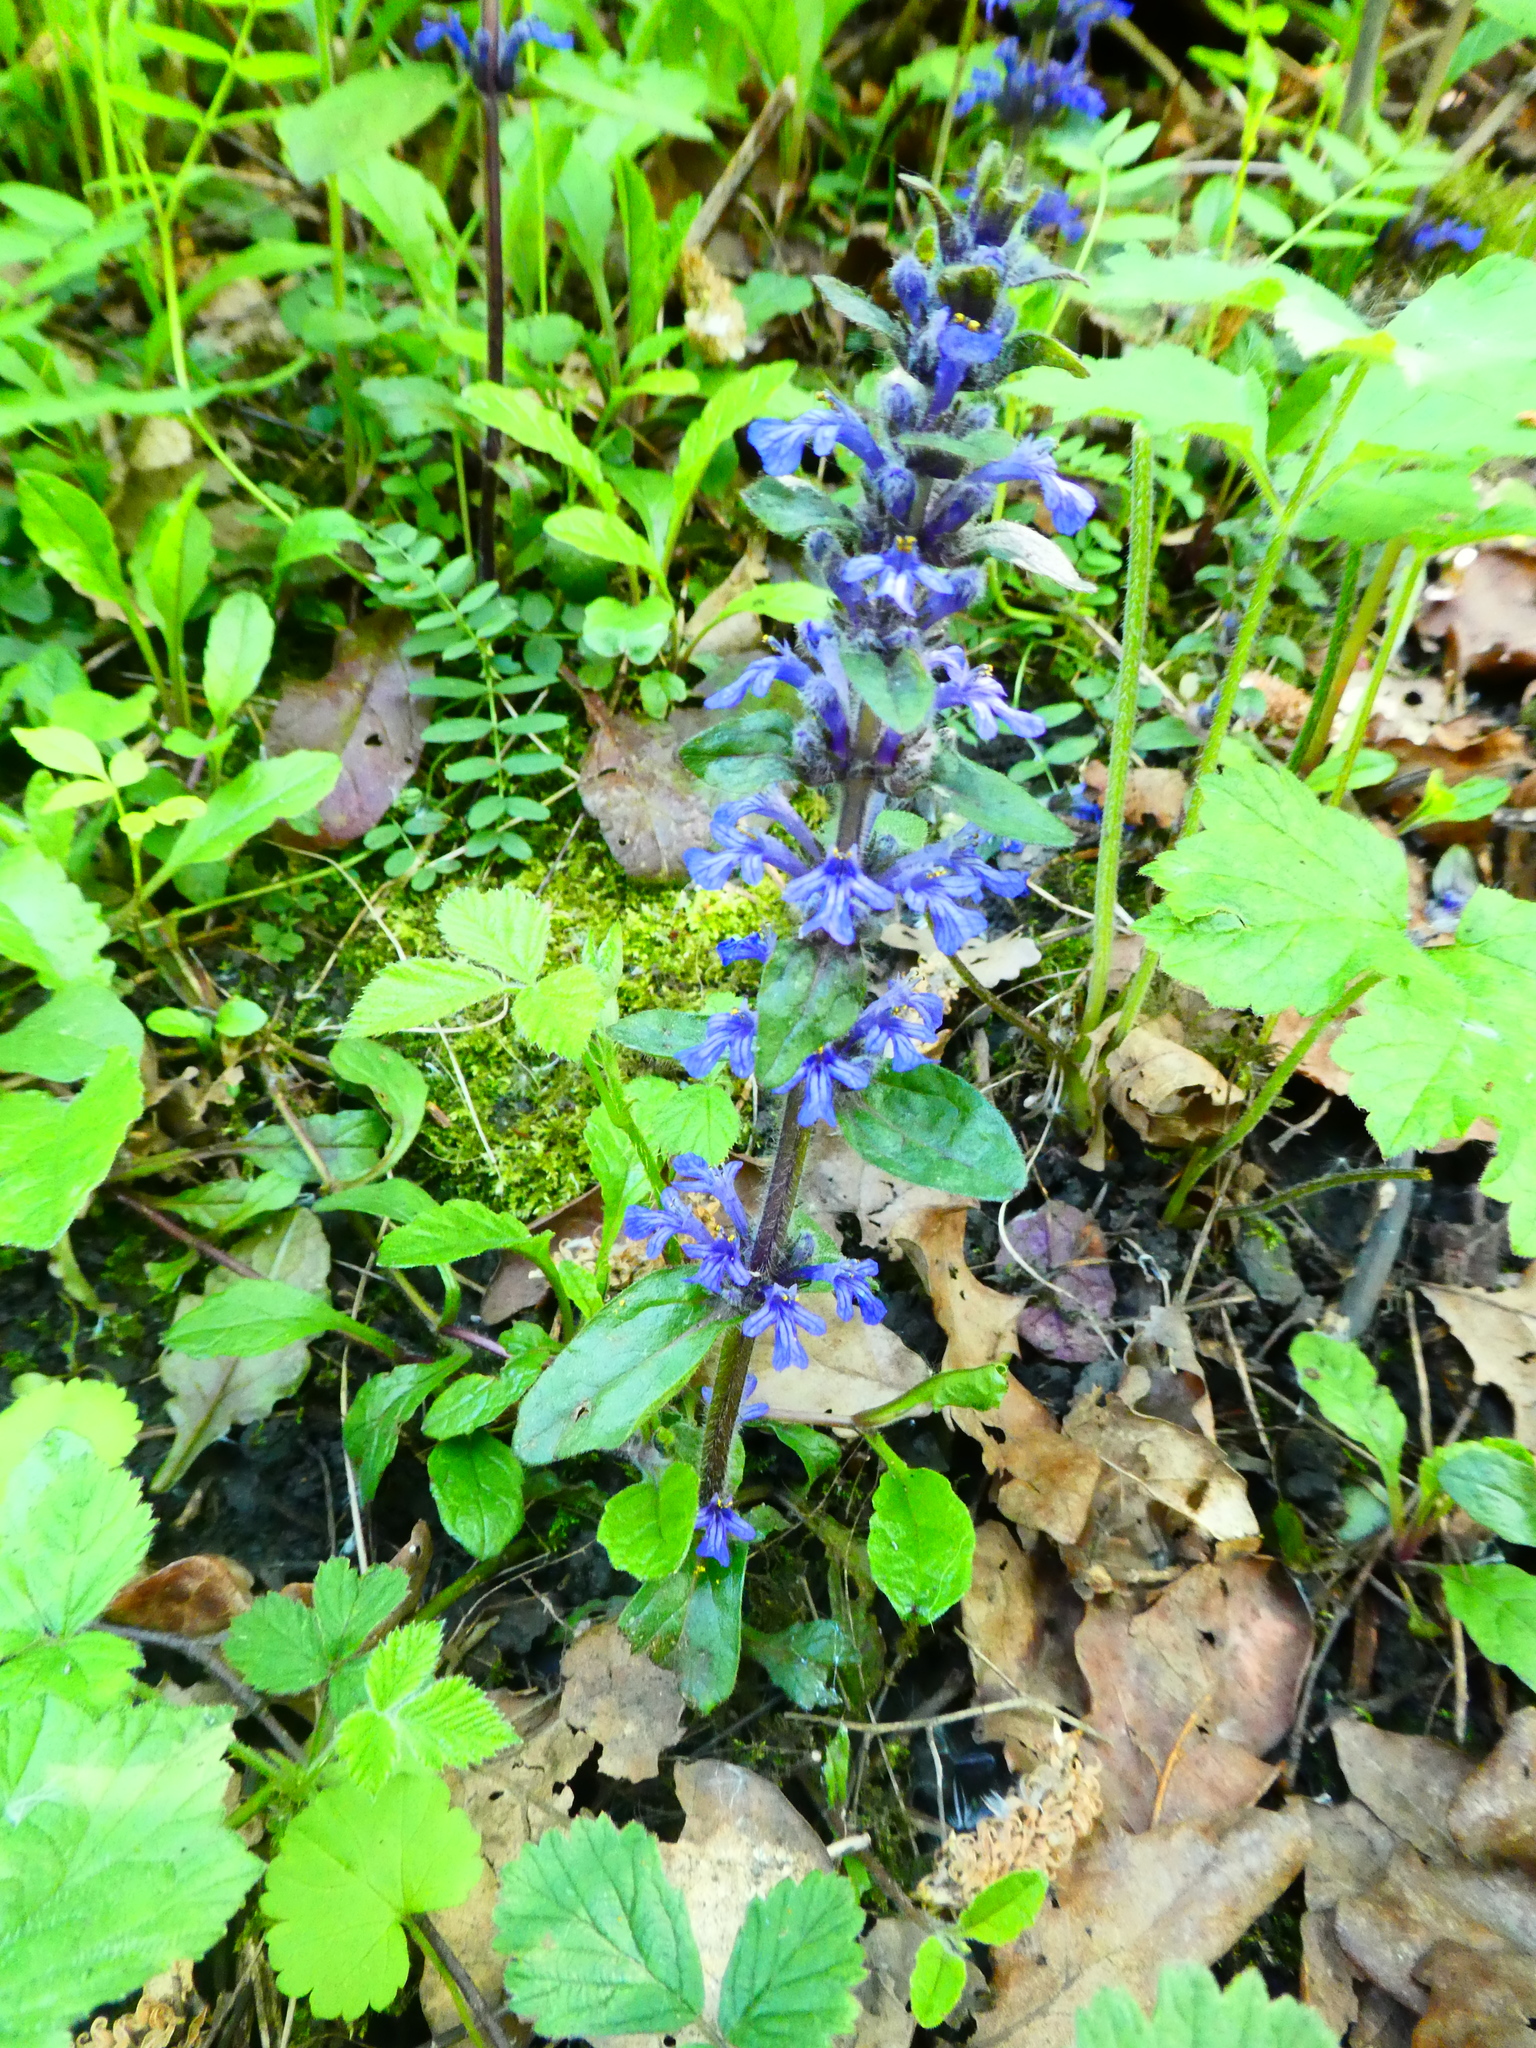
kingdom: Plantae
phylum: Tracheophyta
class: Magnoliopsida
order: Lamiales
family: Lamiaceae
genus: Ajuga
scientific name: Ajuga reptans
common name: Bugle
